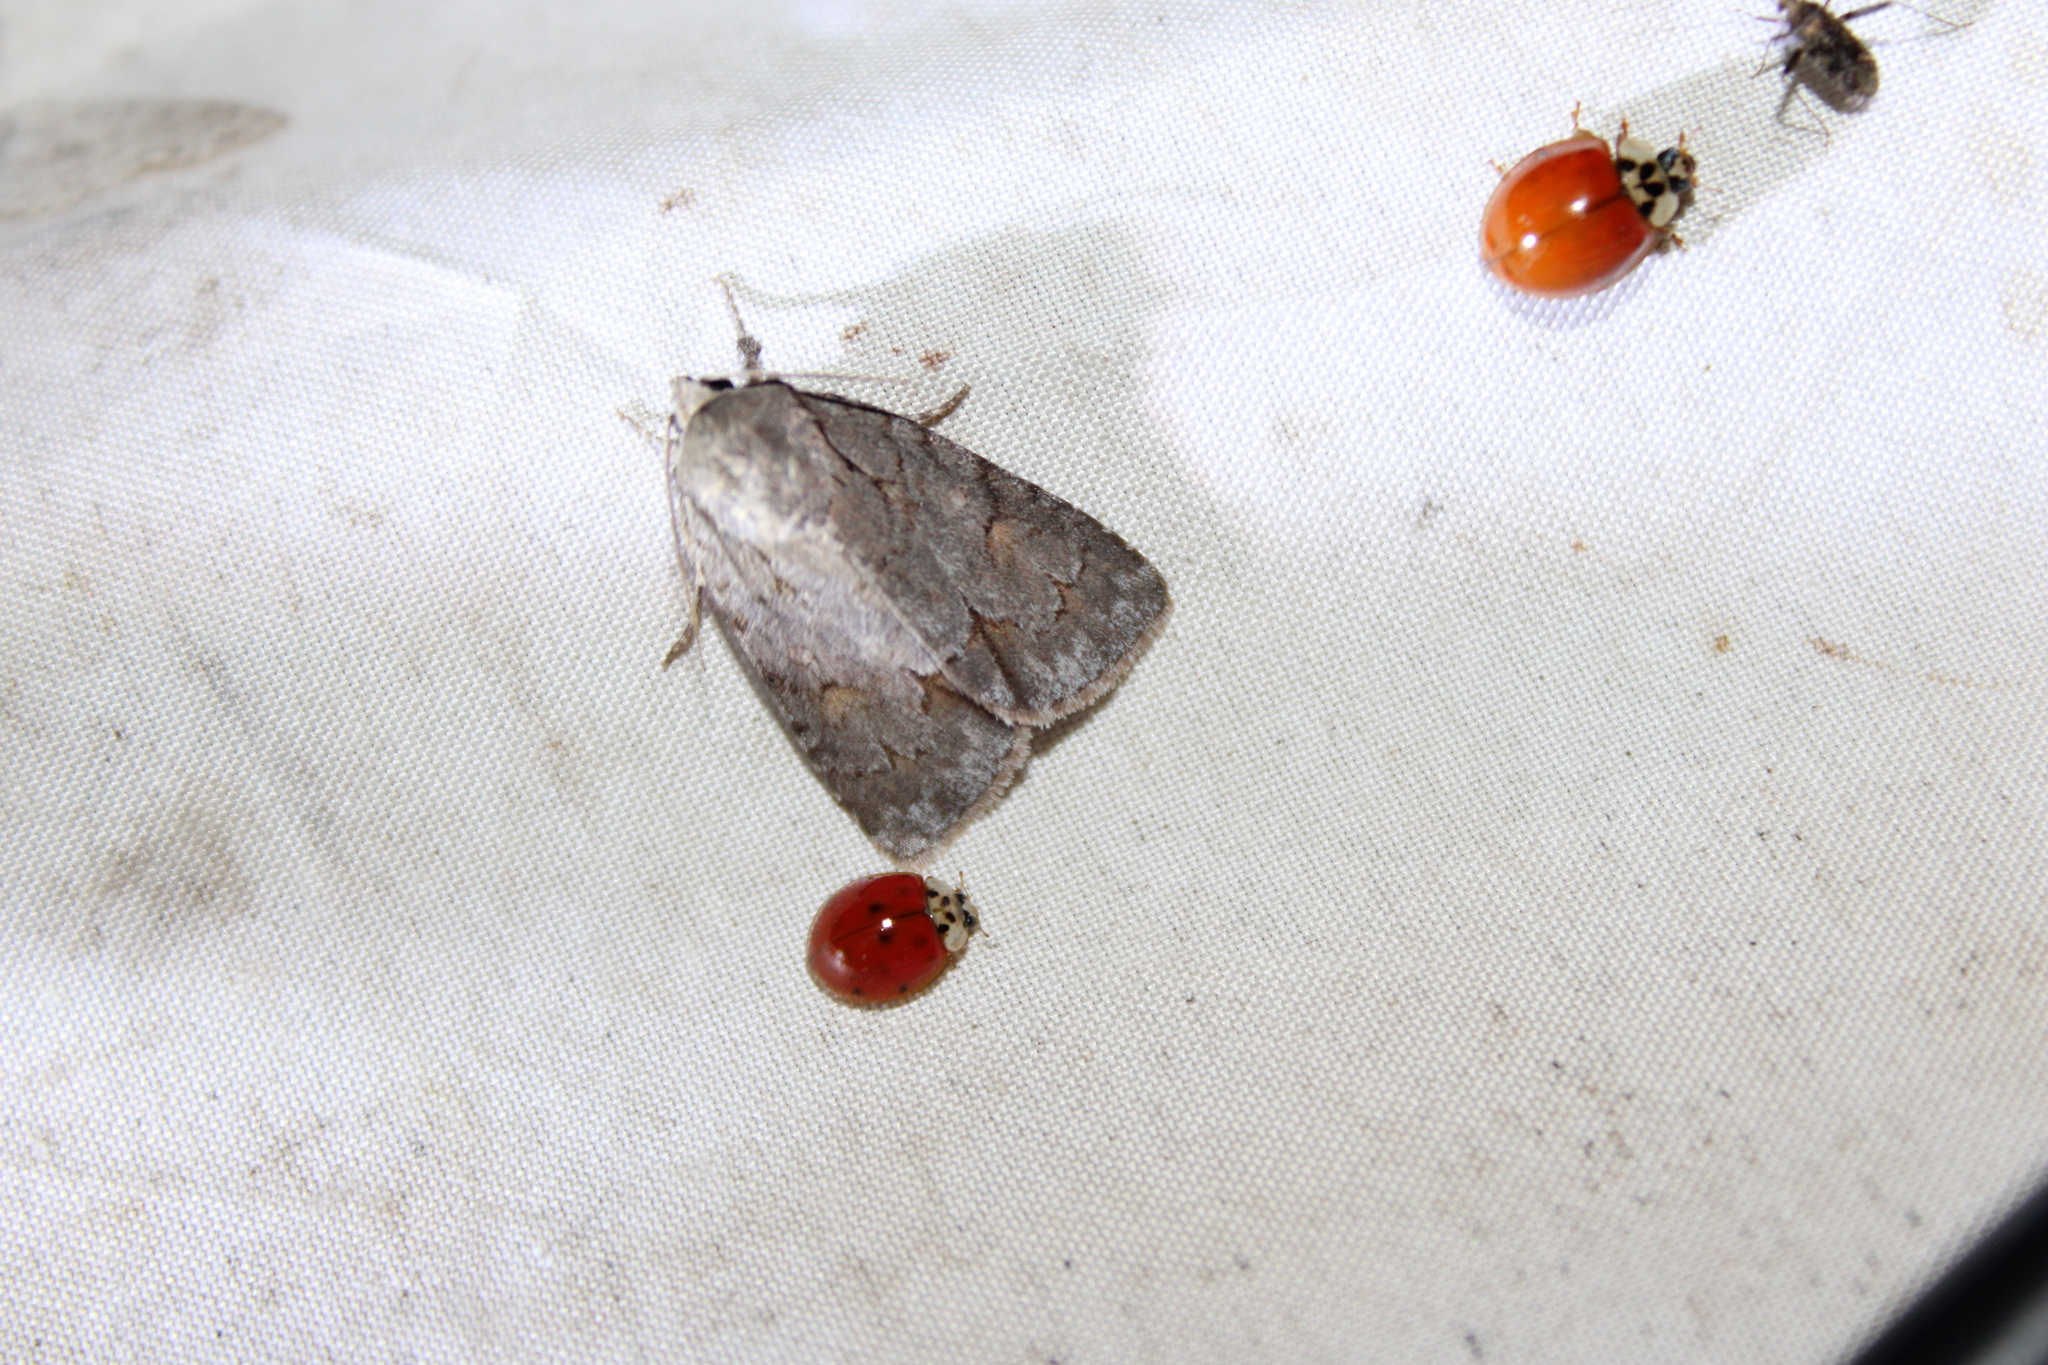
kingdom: Animalia
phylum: Arthropoda
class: Insecta
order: Lepidoptera
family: Noctuidae
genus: Acronicta
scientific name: Acronicta tritona
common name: Triton dagger
